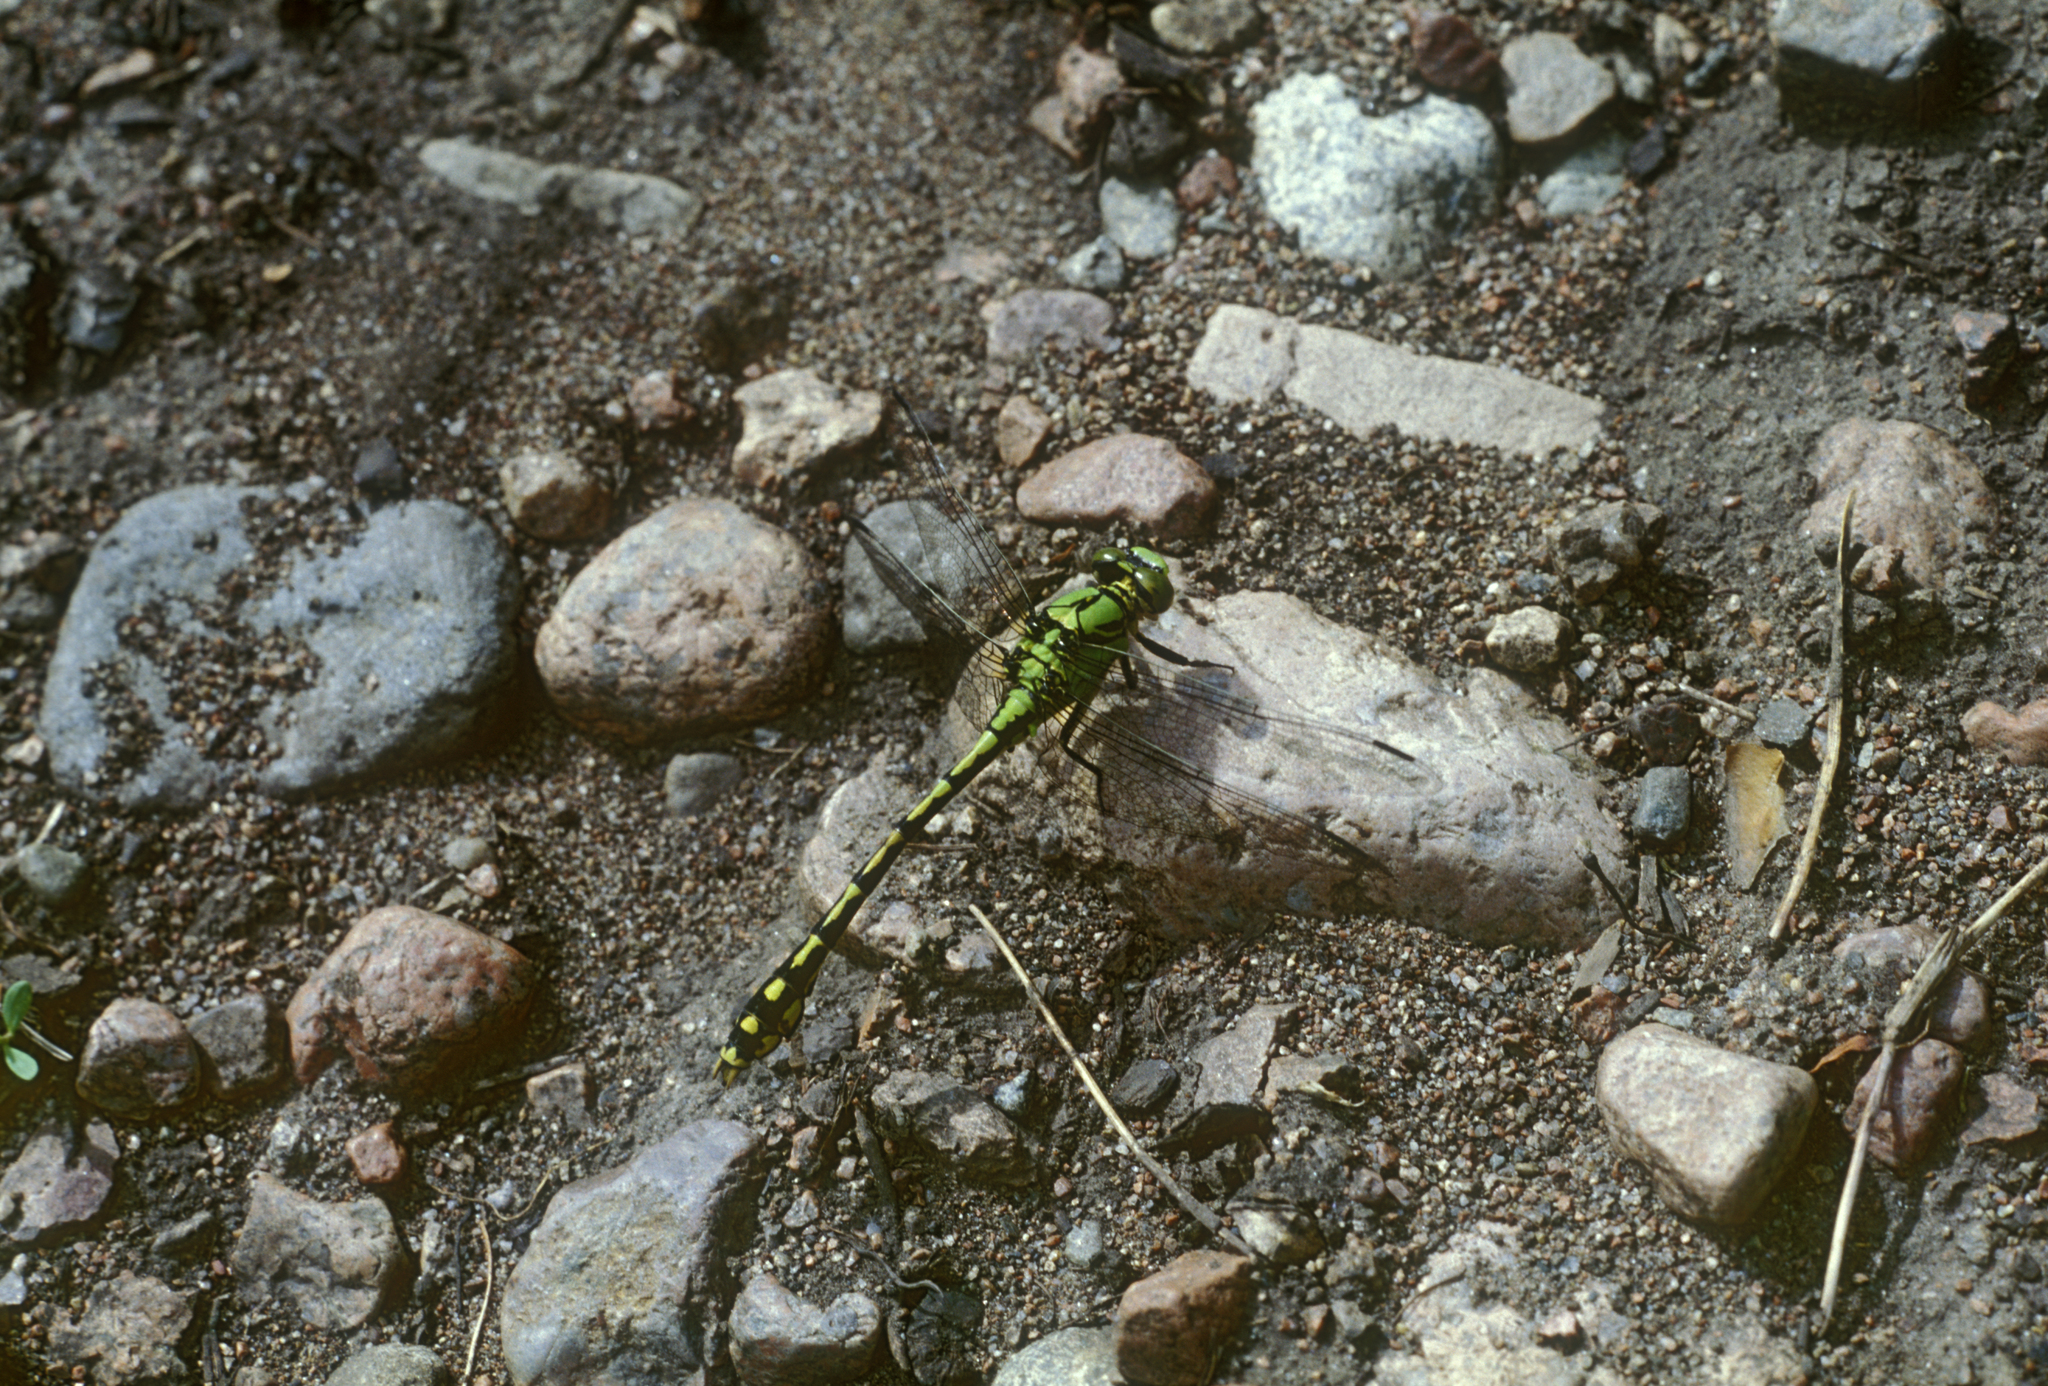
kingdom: Animalia
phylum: Arthropoda
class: Insecta
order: Odonata
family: Gomphidae
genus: Ophiogomphus
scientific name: Ophiogomphus obscurus
